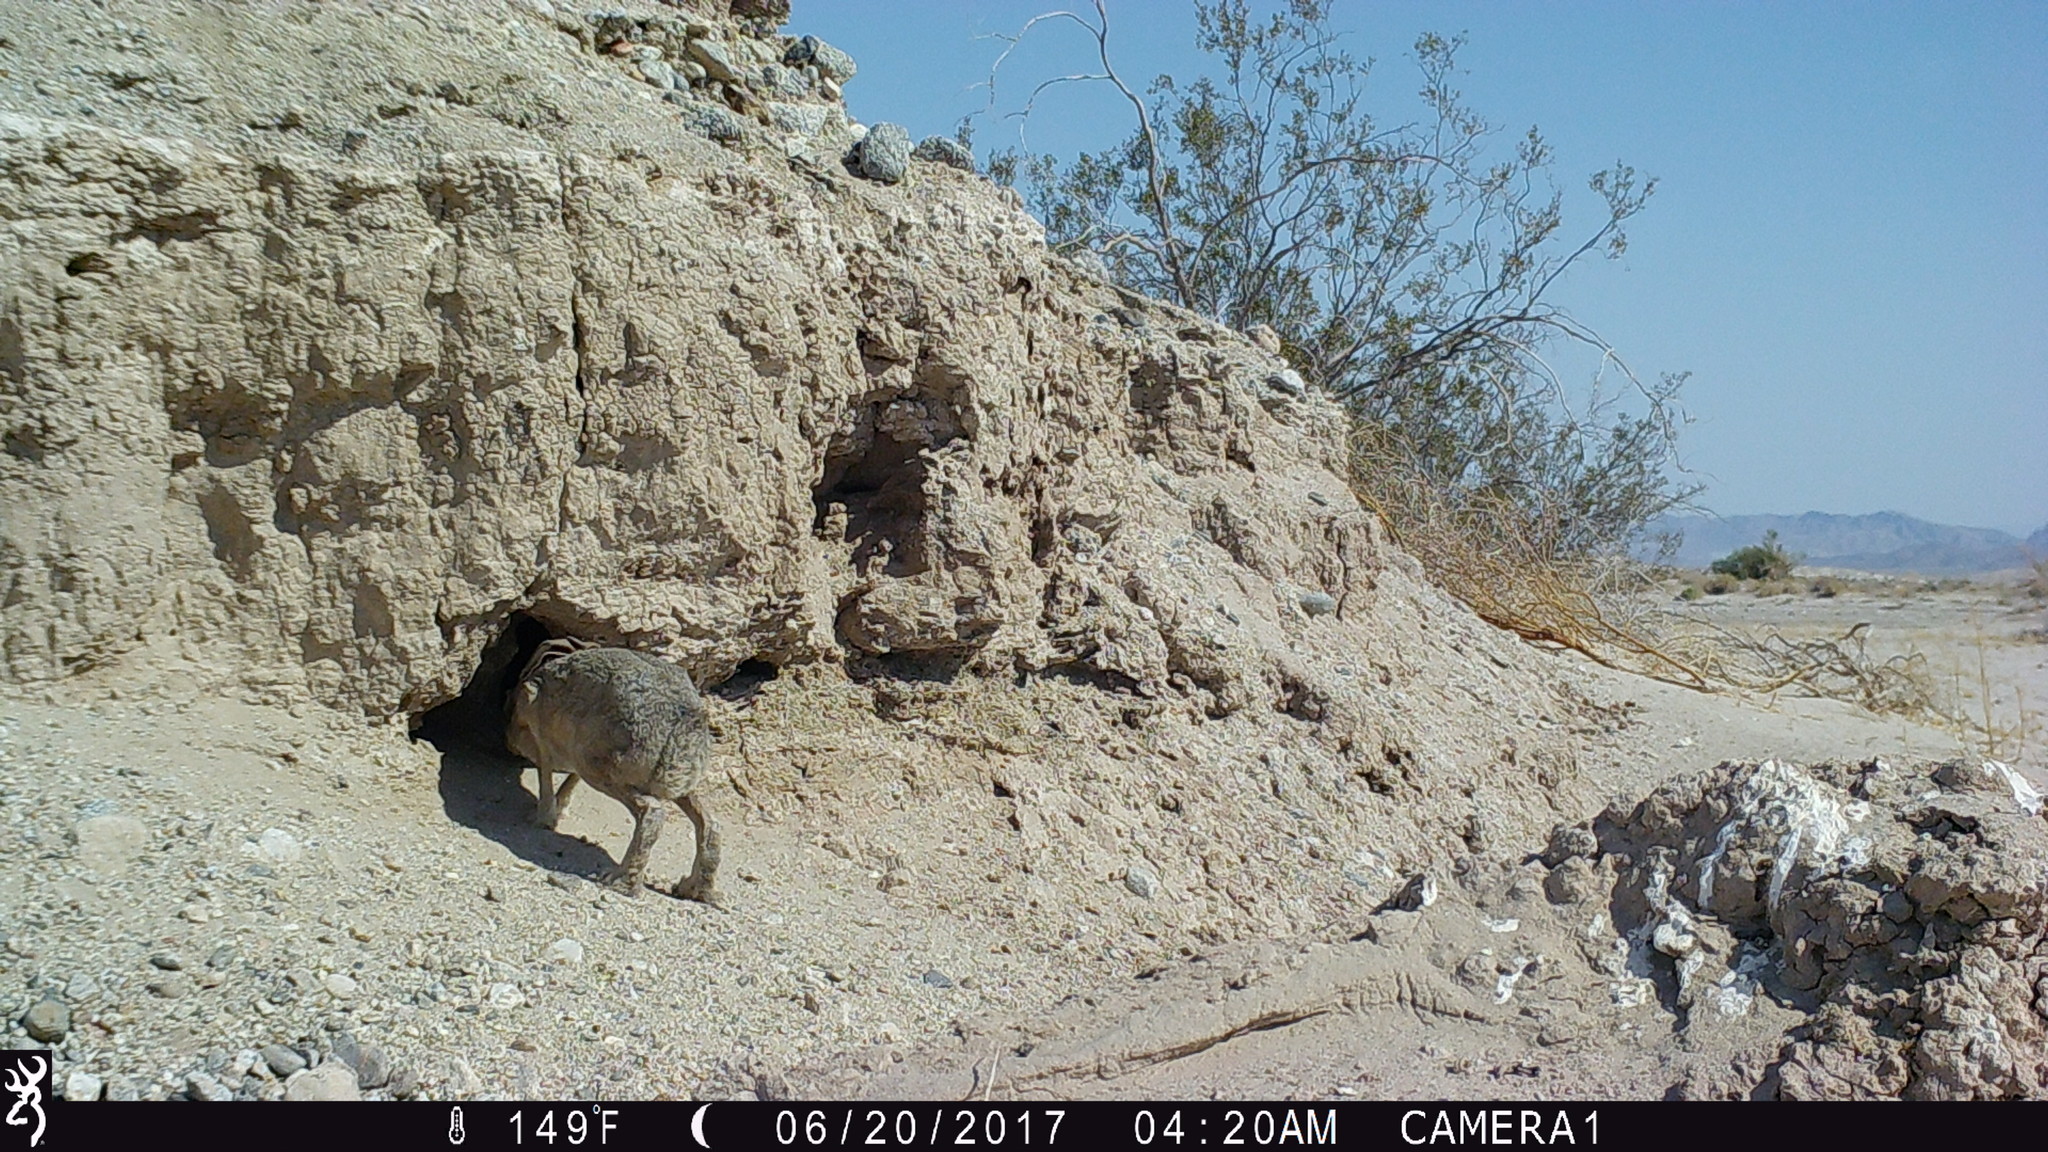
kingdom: Animalia
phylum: Chordata
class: Mammalia
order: Lagomorpha
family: Leporidae
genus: Lepus
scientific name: Lepus californicus
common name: Black-tailed jackrabbit
